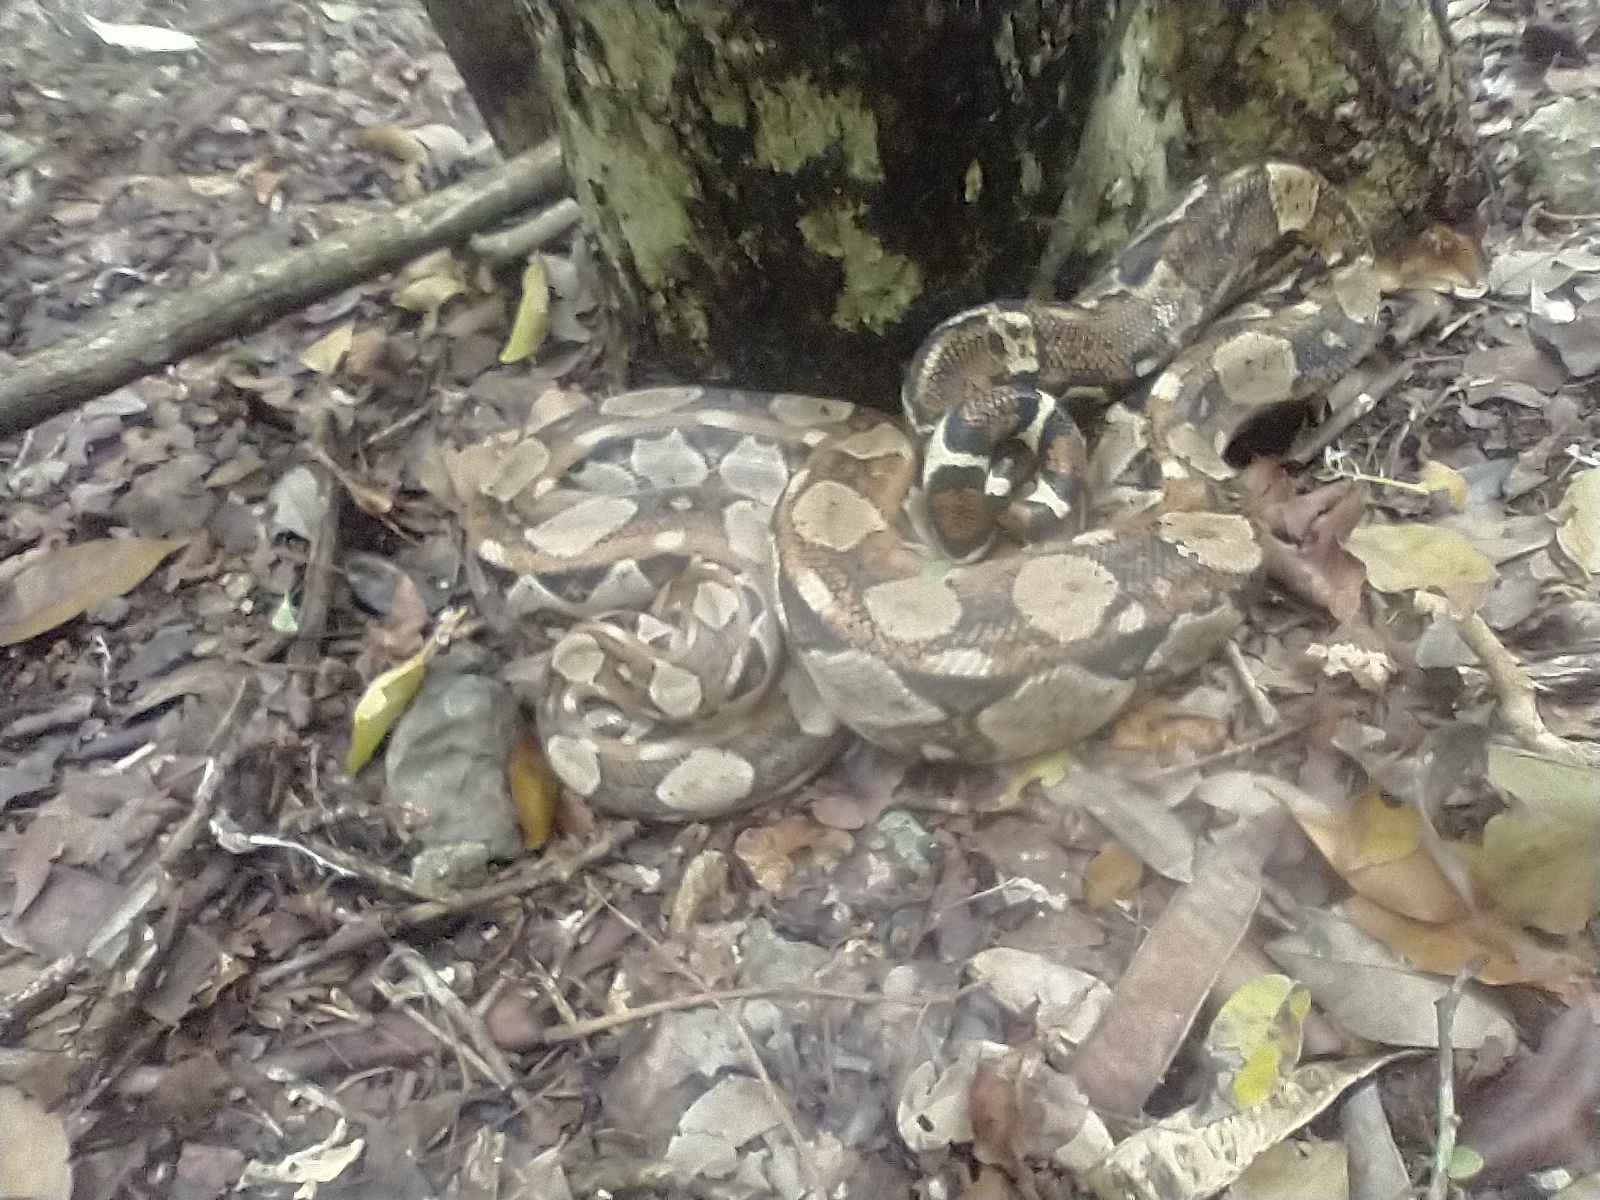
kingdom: Animalia
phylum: Chordata
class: Squamata
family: Boidae
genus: Boa
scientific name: Boa imperator
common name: Central american boa
